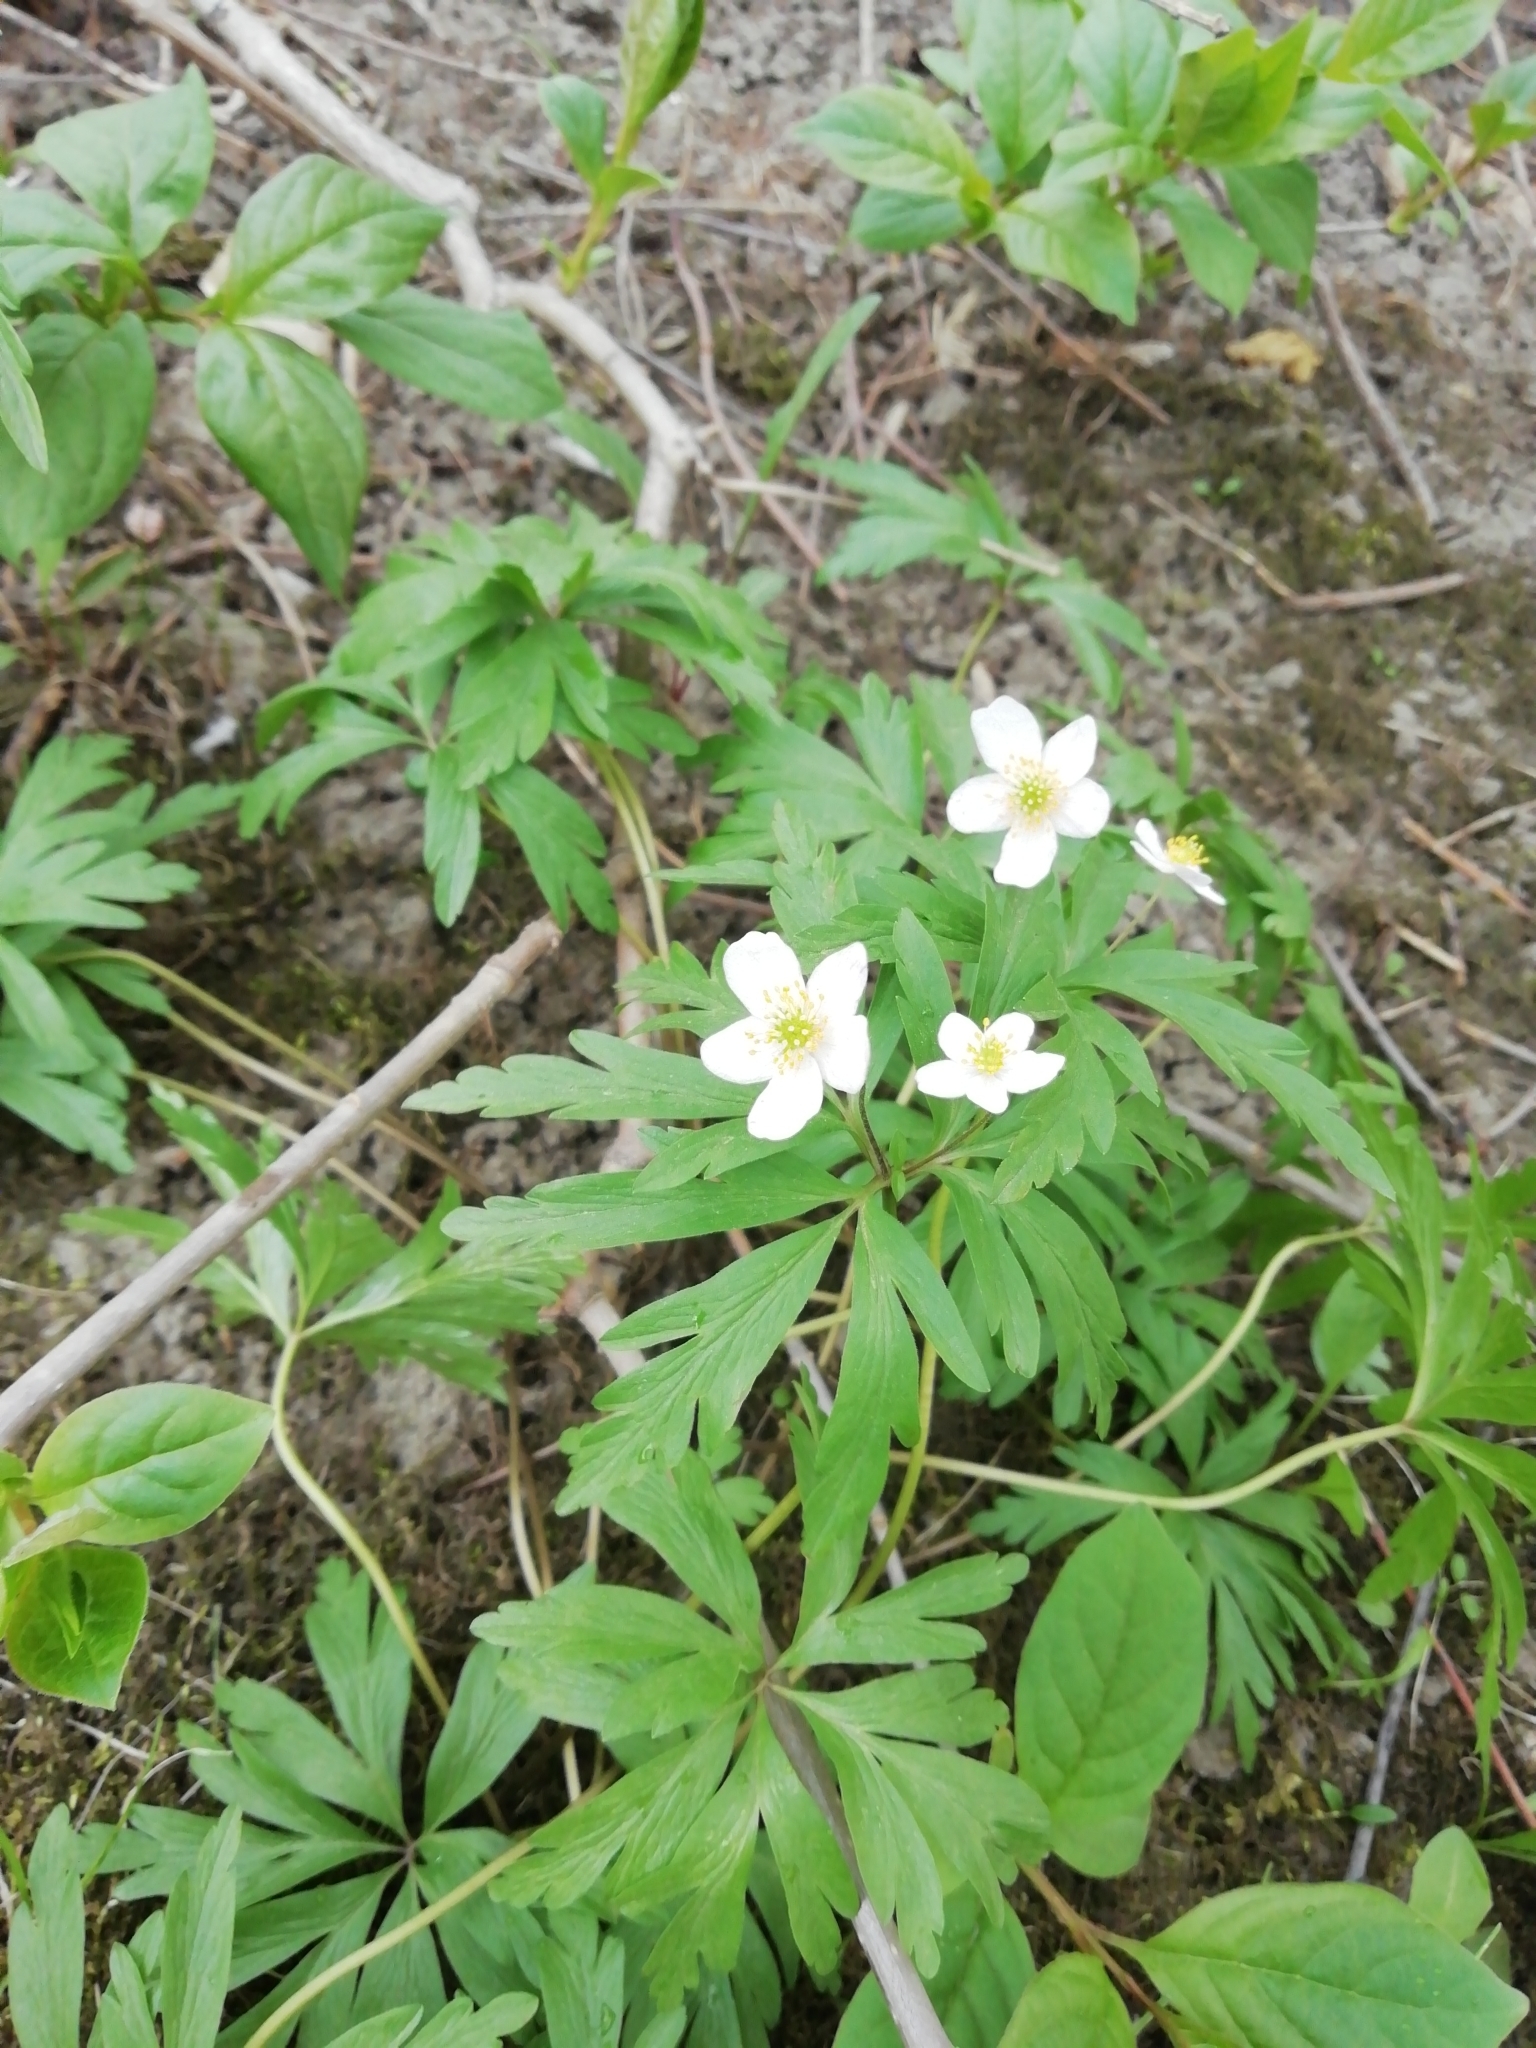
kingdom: Plantae
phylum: Tracheophyta
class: Magnoliopsida
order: Ranunculales
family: Ranunculaceae
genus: Anemone
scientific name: Anemone caerulea
